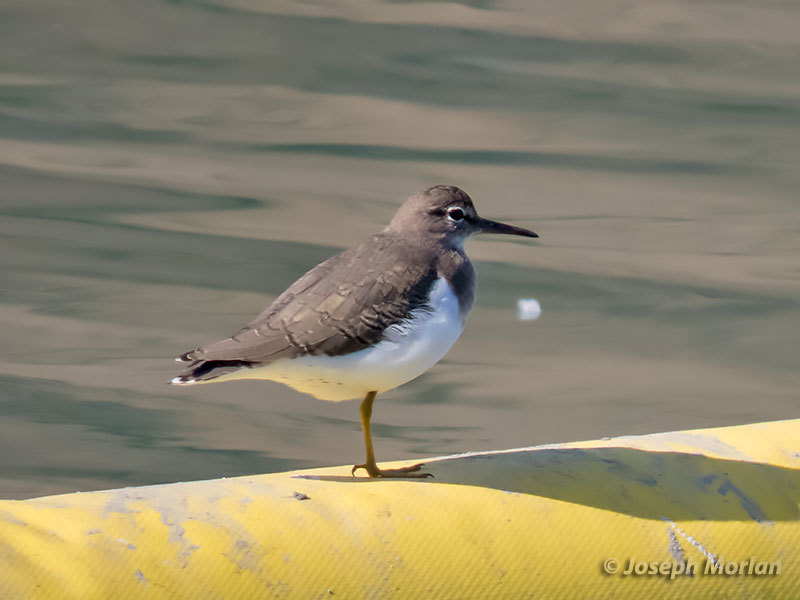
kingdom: Animalia
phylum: Chordata
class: Aves
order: Charadriiformes
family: Scolopacidae
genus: Actitis
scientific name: Actitis macularius
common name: Spotted sandpiper
